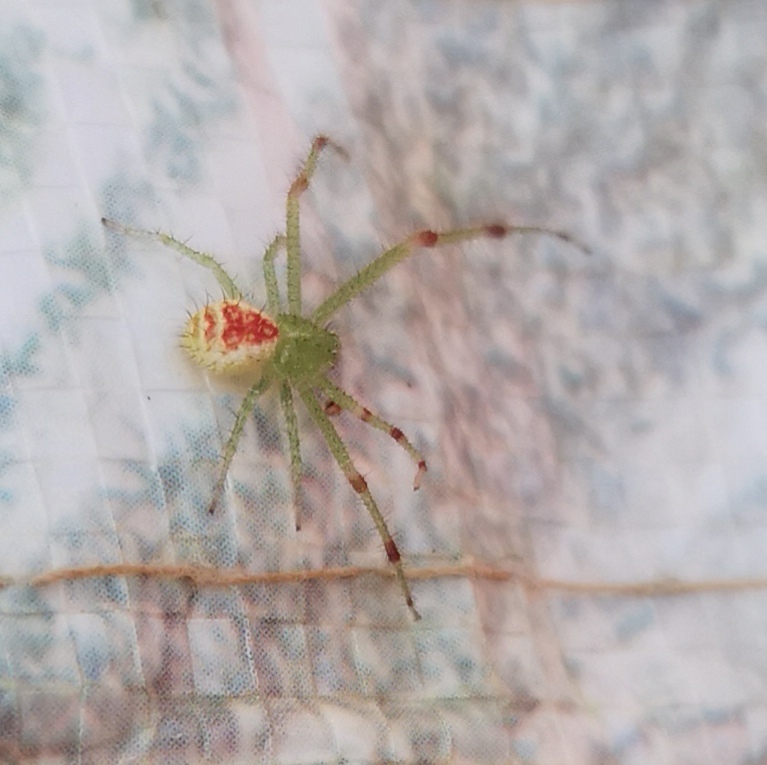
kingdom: Animalia
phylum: Arthropoda
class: Arachnida
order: Araneae
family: Thomisidae
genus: Heriaeus
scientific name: Heriaeus hirtus
